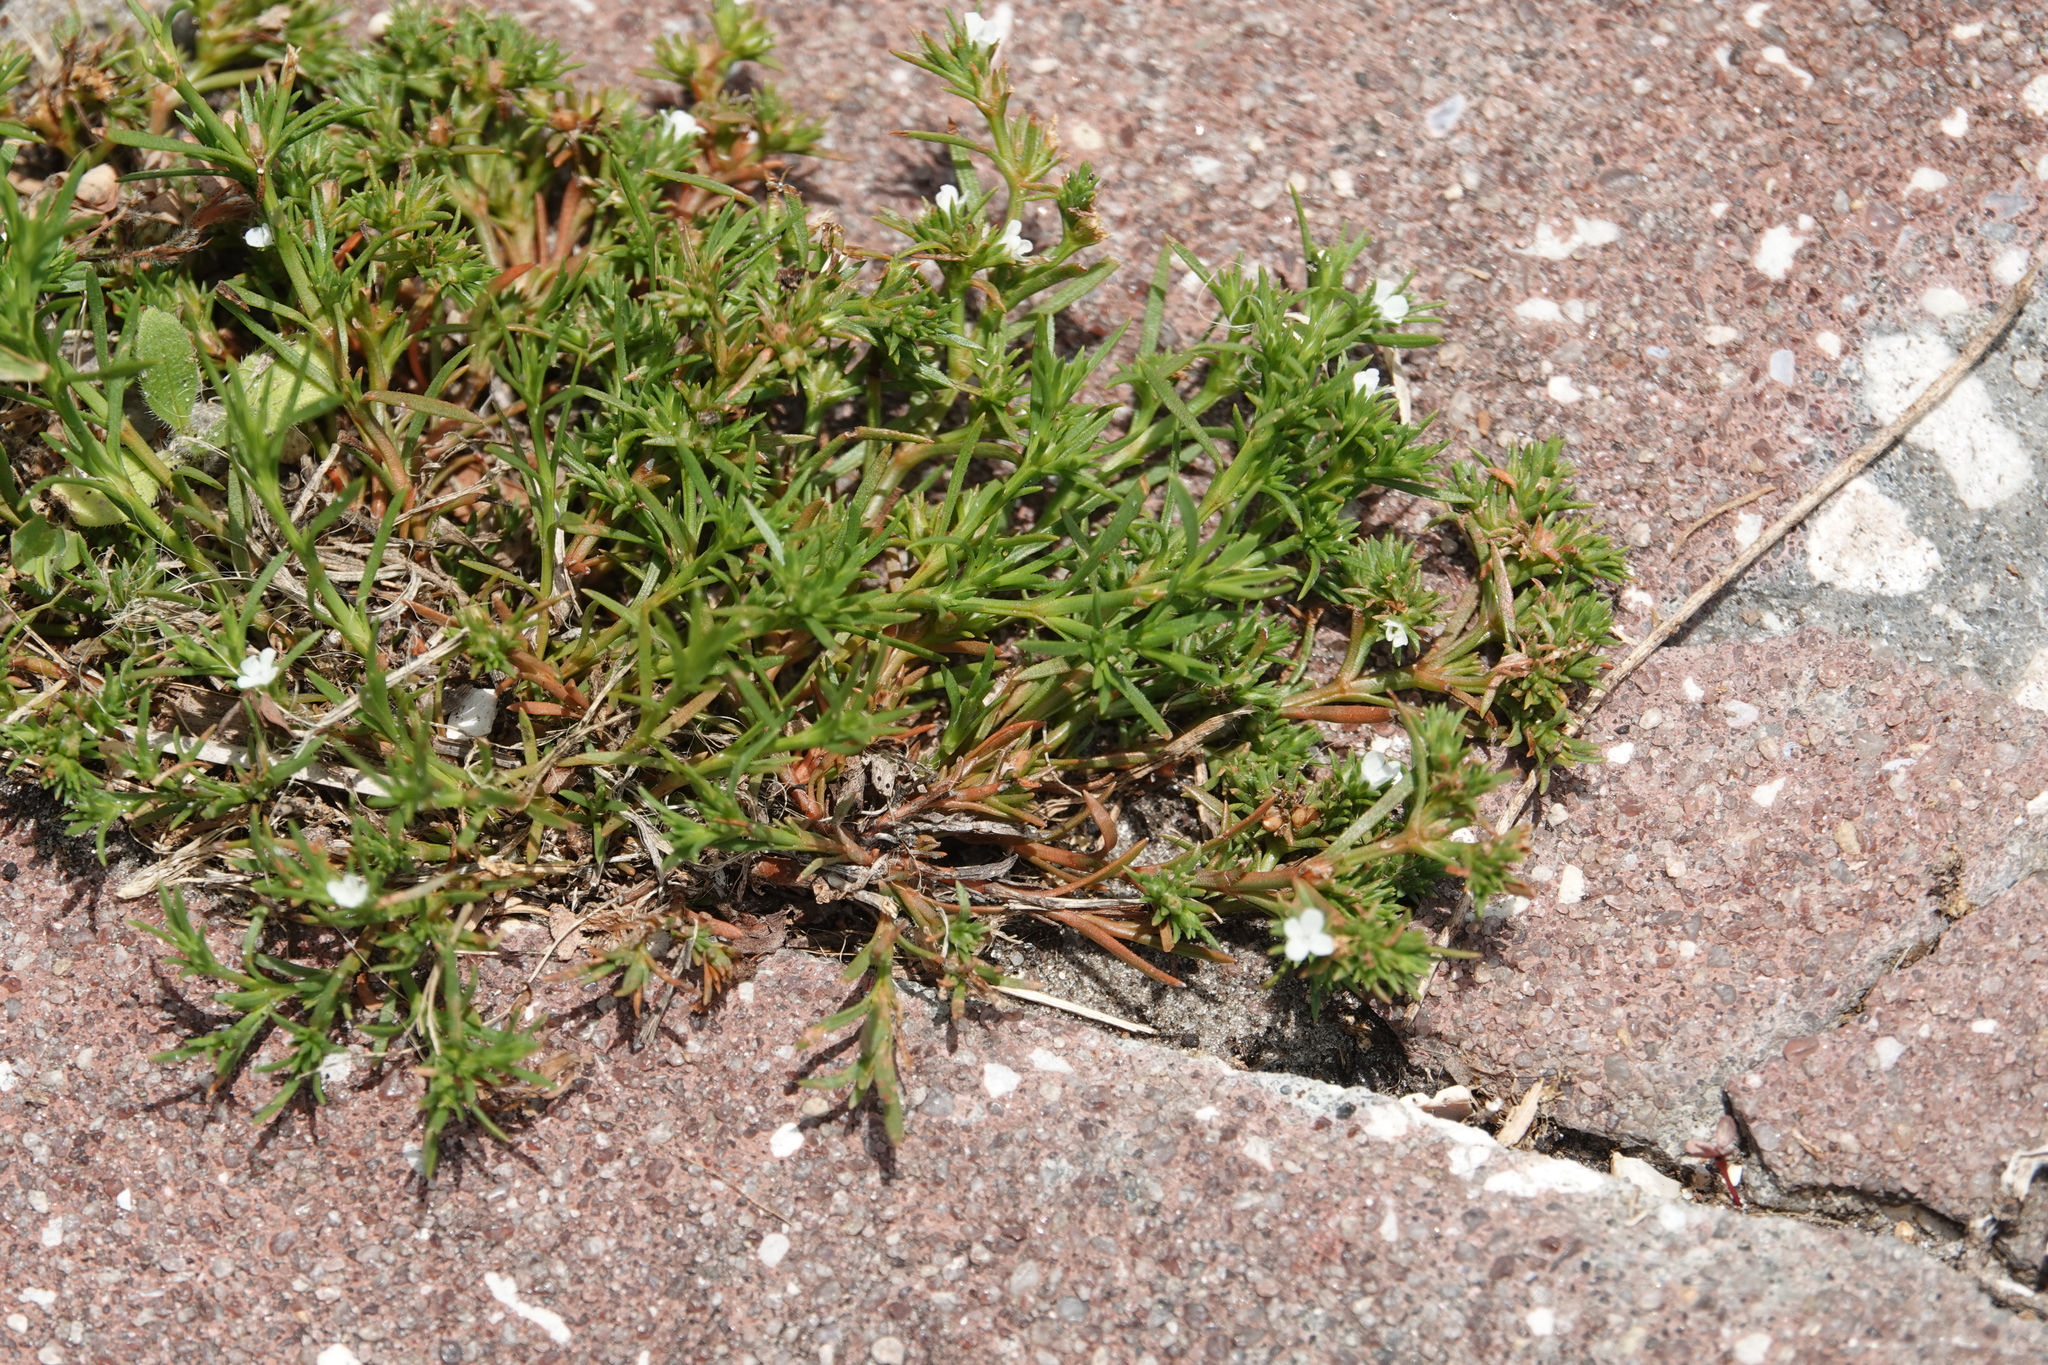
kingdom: Plantae
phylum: Tracheophyta
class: Magnoliopsida
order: Lamiales
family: Tetrachondraceae
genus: Polypremum
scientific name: Polypremum procumbens
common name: Juniper-leaf
